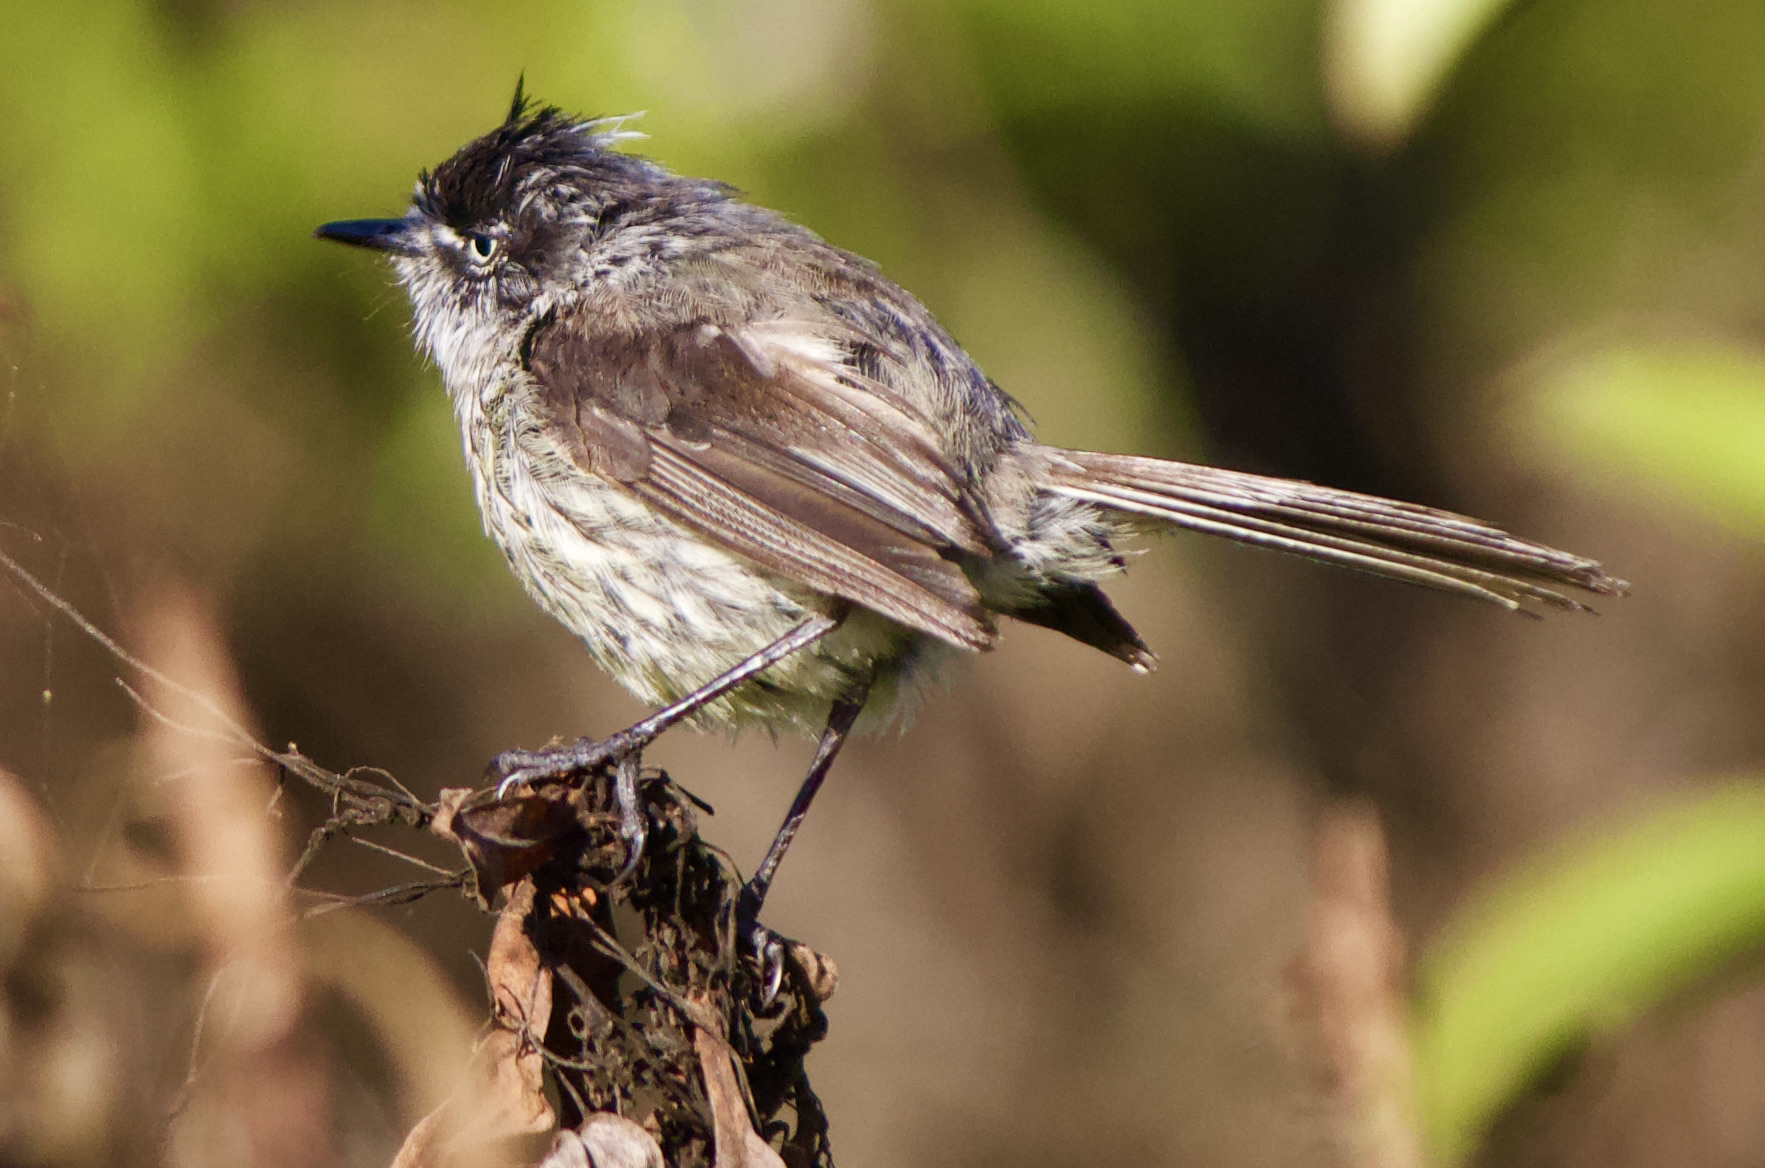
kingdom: Animalia
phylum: Chordata
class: Aves
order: Passeriformes
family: Tyrannidae
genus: Anairetes
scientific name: Anairetes parulus
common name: Tufted tit-tyrant
